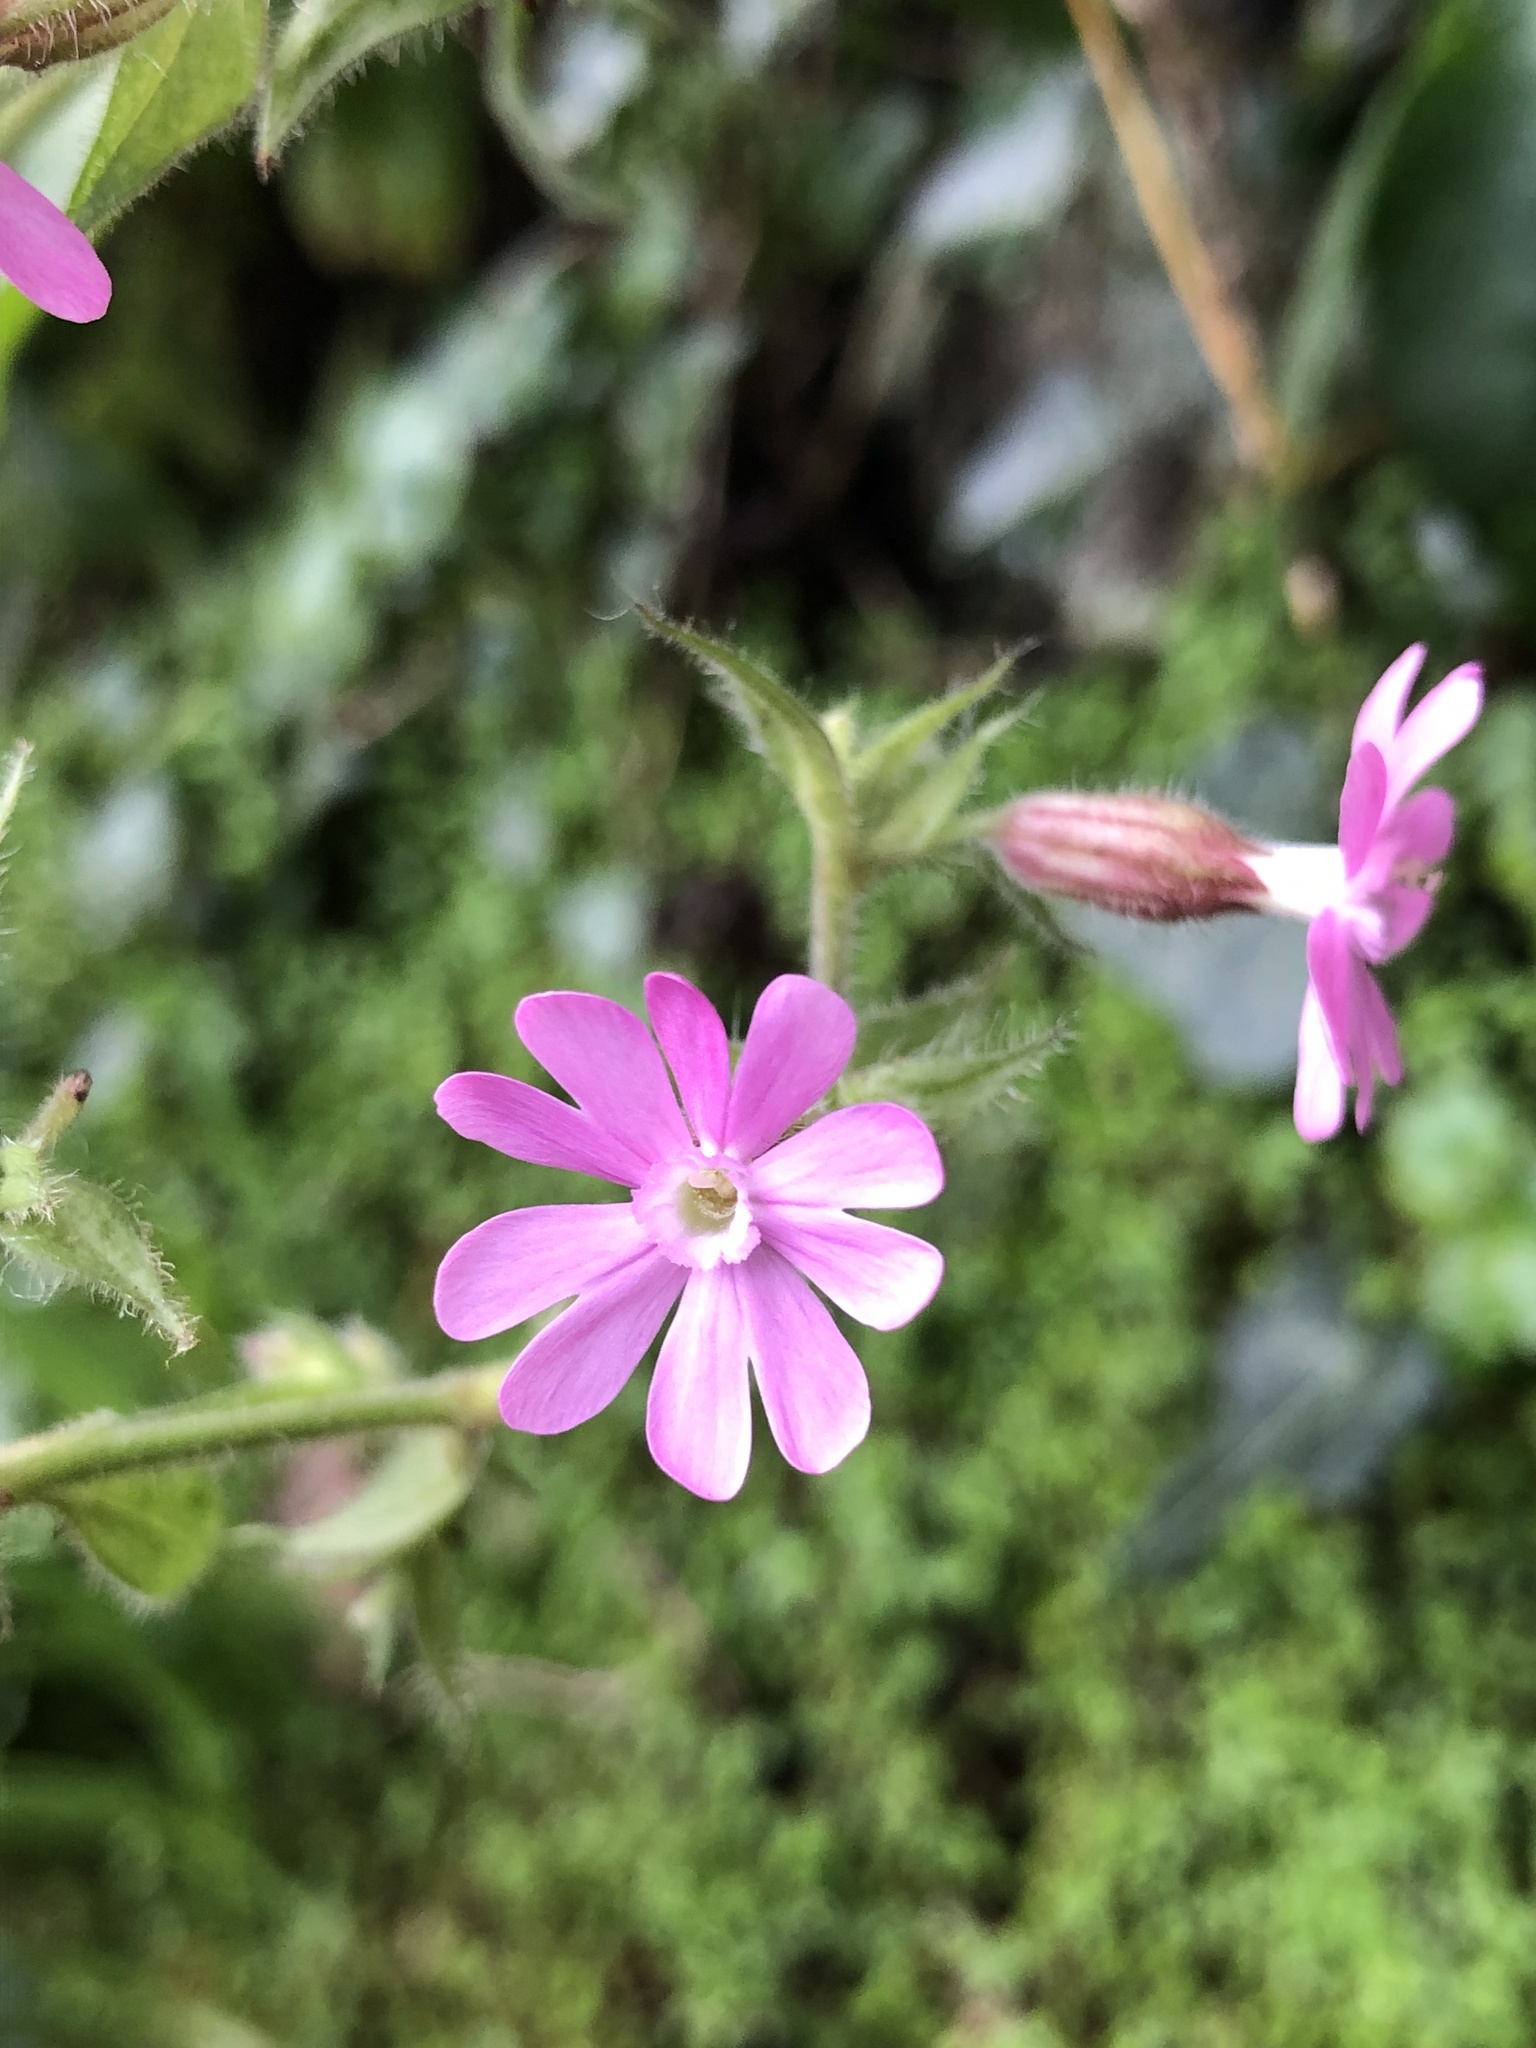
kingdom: Plantae
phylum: Tracheophyta
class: Magnoliopsida
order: Caryophyllales
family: Caryophyllaceae
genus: Silene
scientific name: Silene dioica
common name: Red campion
